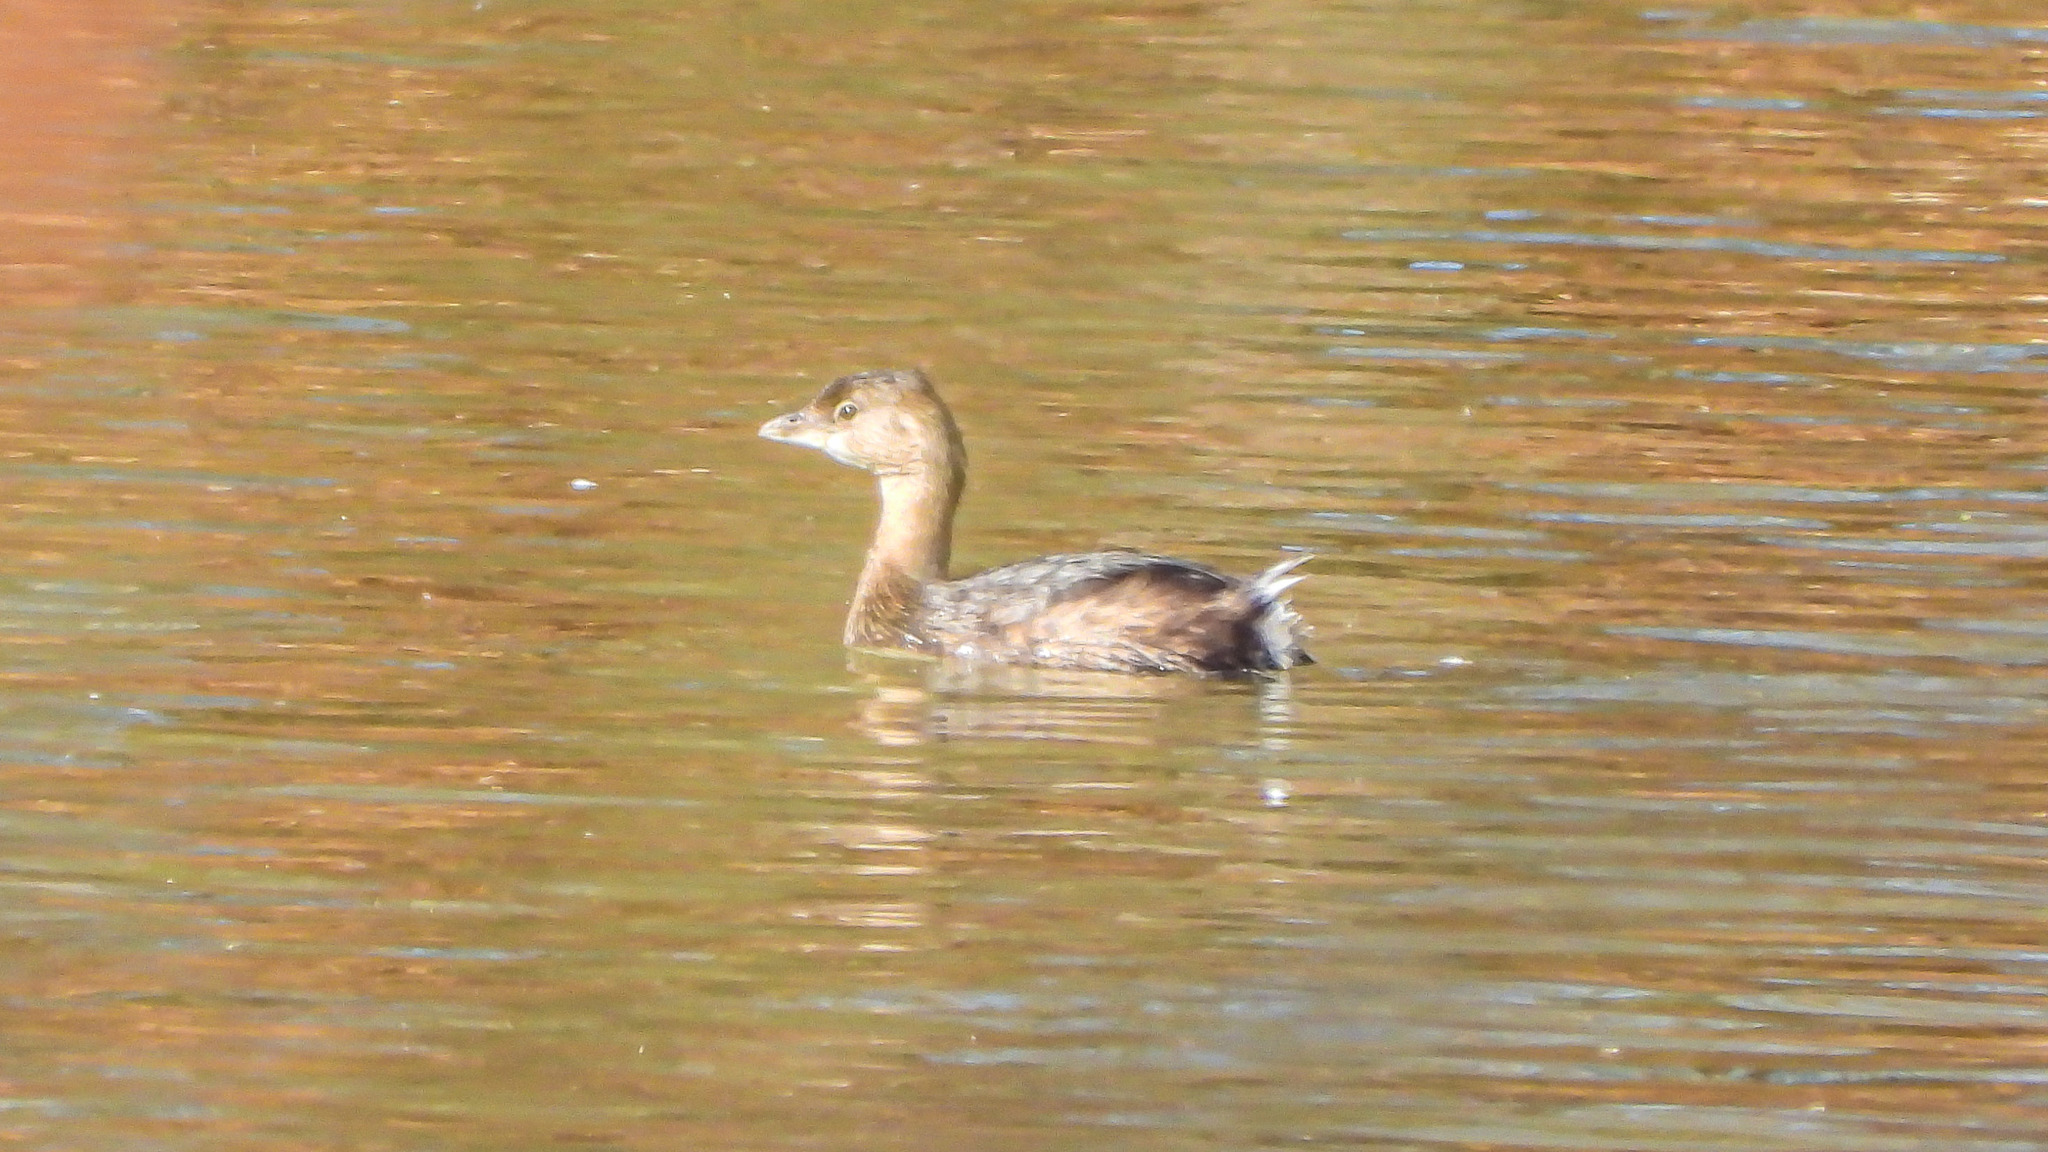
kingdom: Animalia
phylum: Chordata
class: Aves
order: Podicipediformes
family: Podicipedidae
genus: Podilymbus
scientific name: Podilymbus podiceps
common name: Pied-billed grebe
